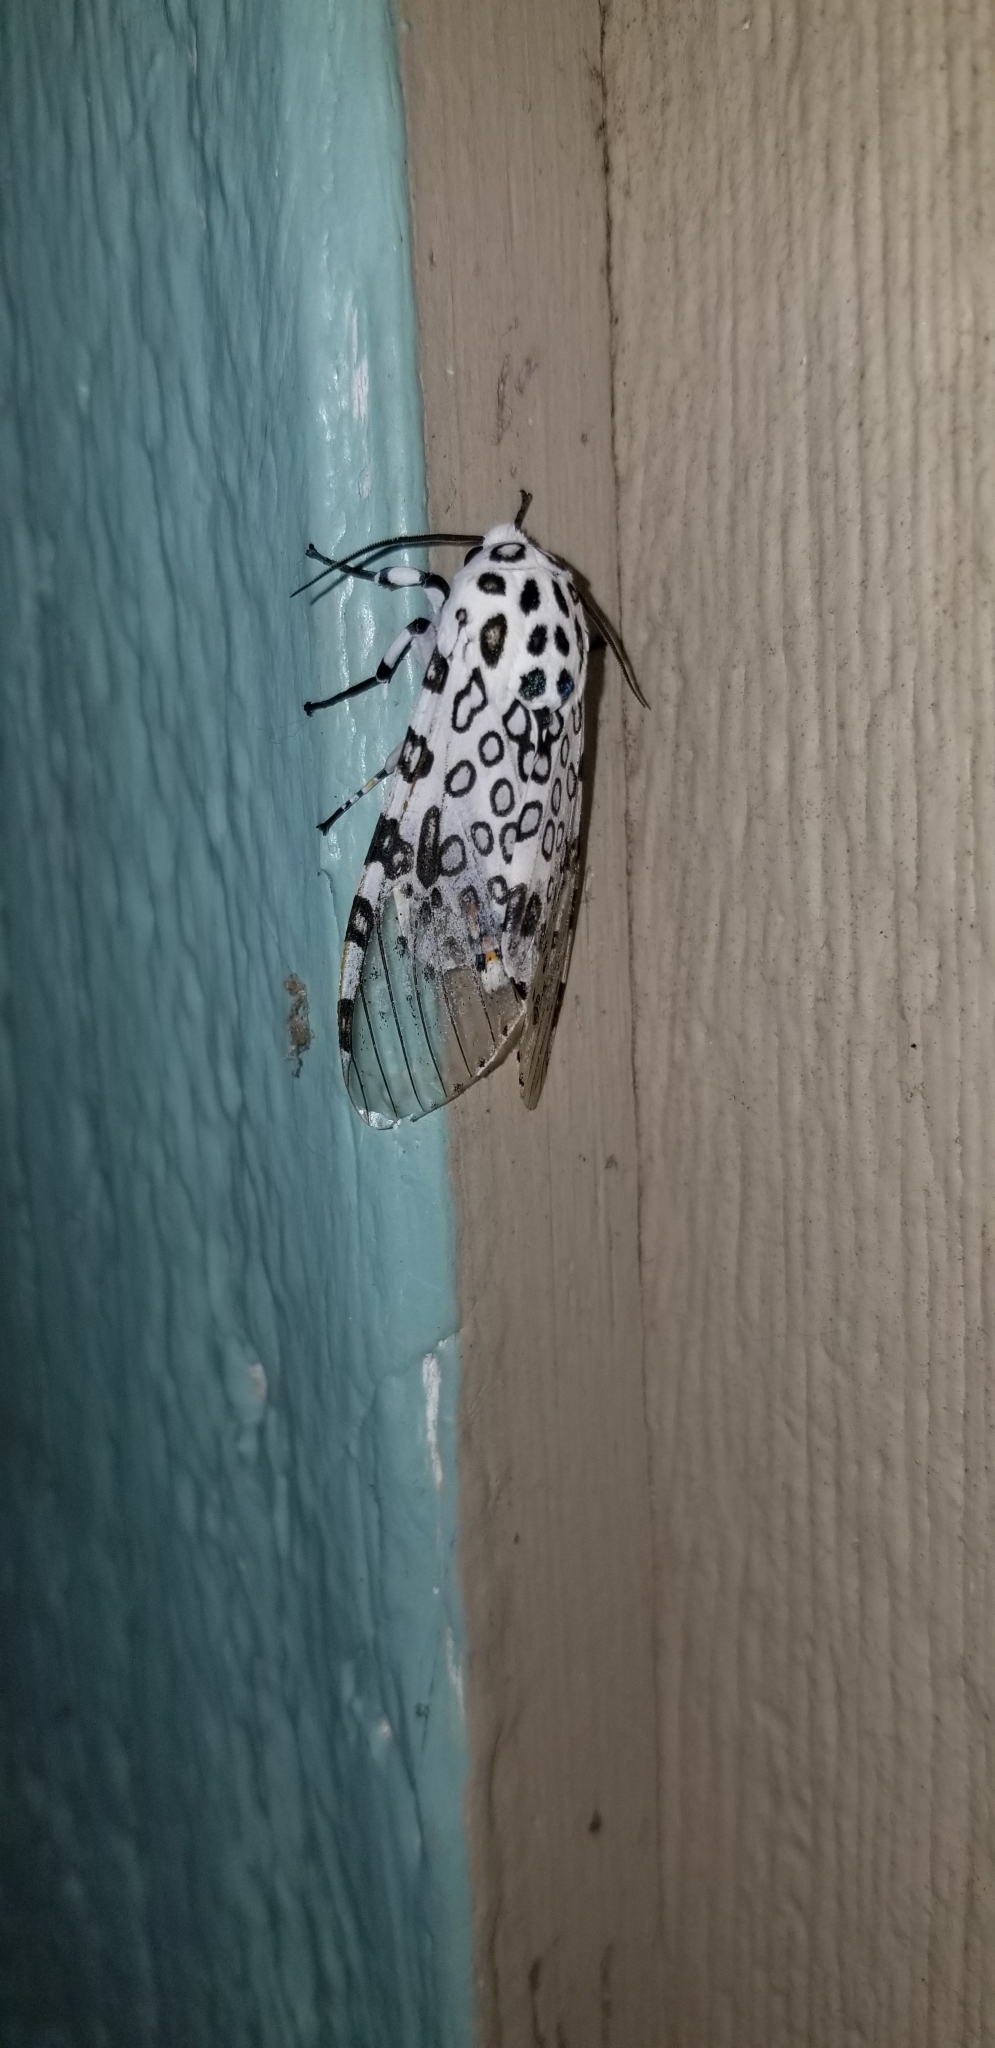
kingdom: Animalia
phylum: Arthropoda
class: Insecta
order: Lepidoptera
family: Erebidae
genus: Hypercompe
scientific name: Hypercompe scribonia
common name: Giant leopard moth
